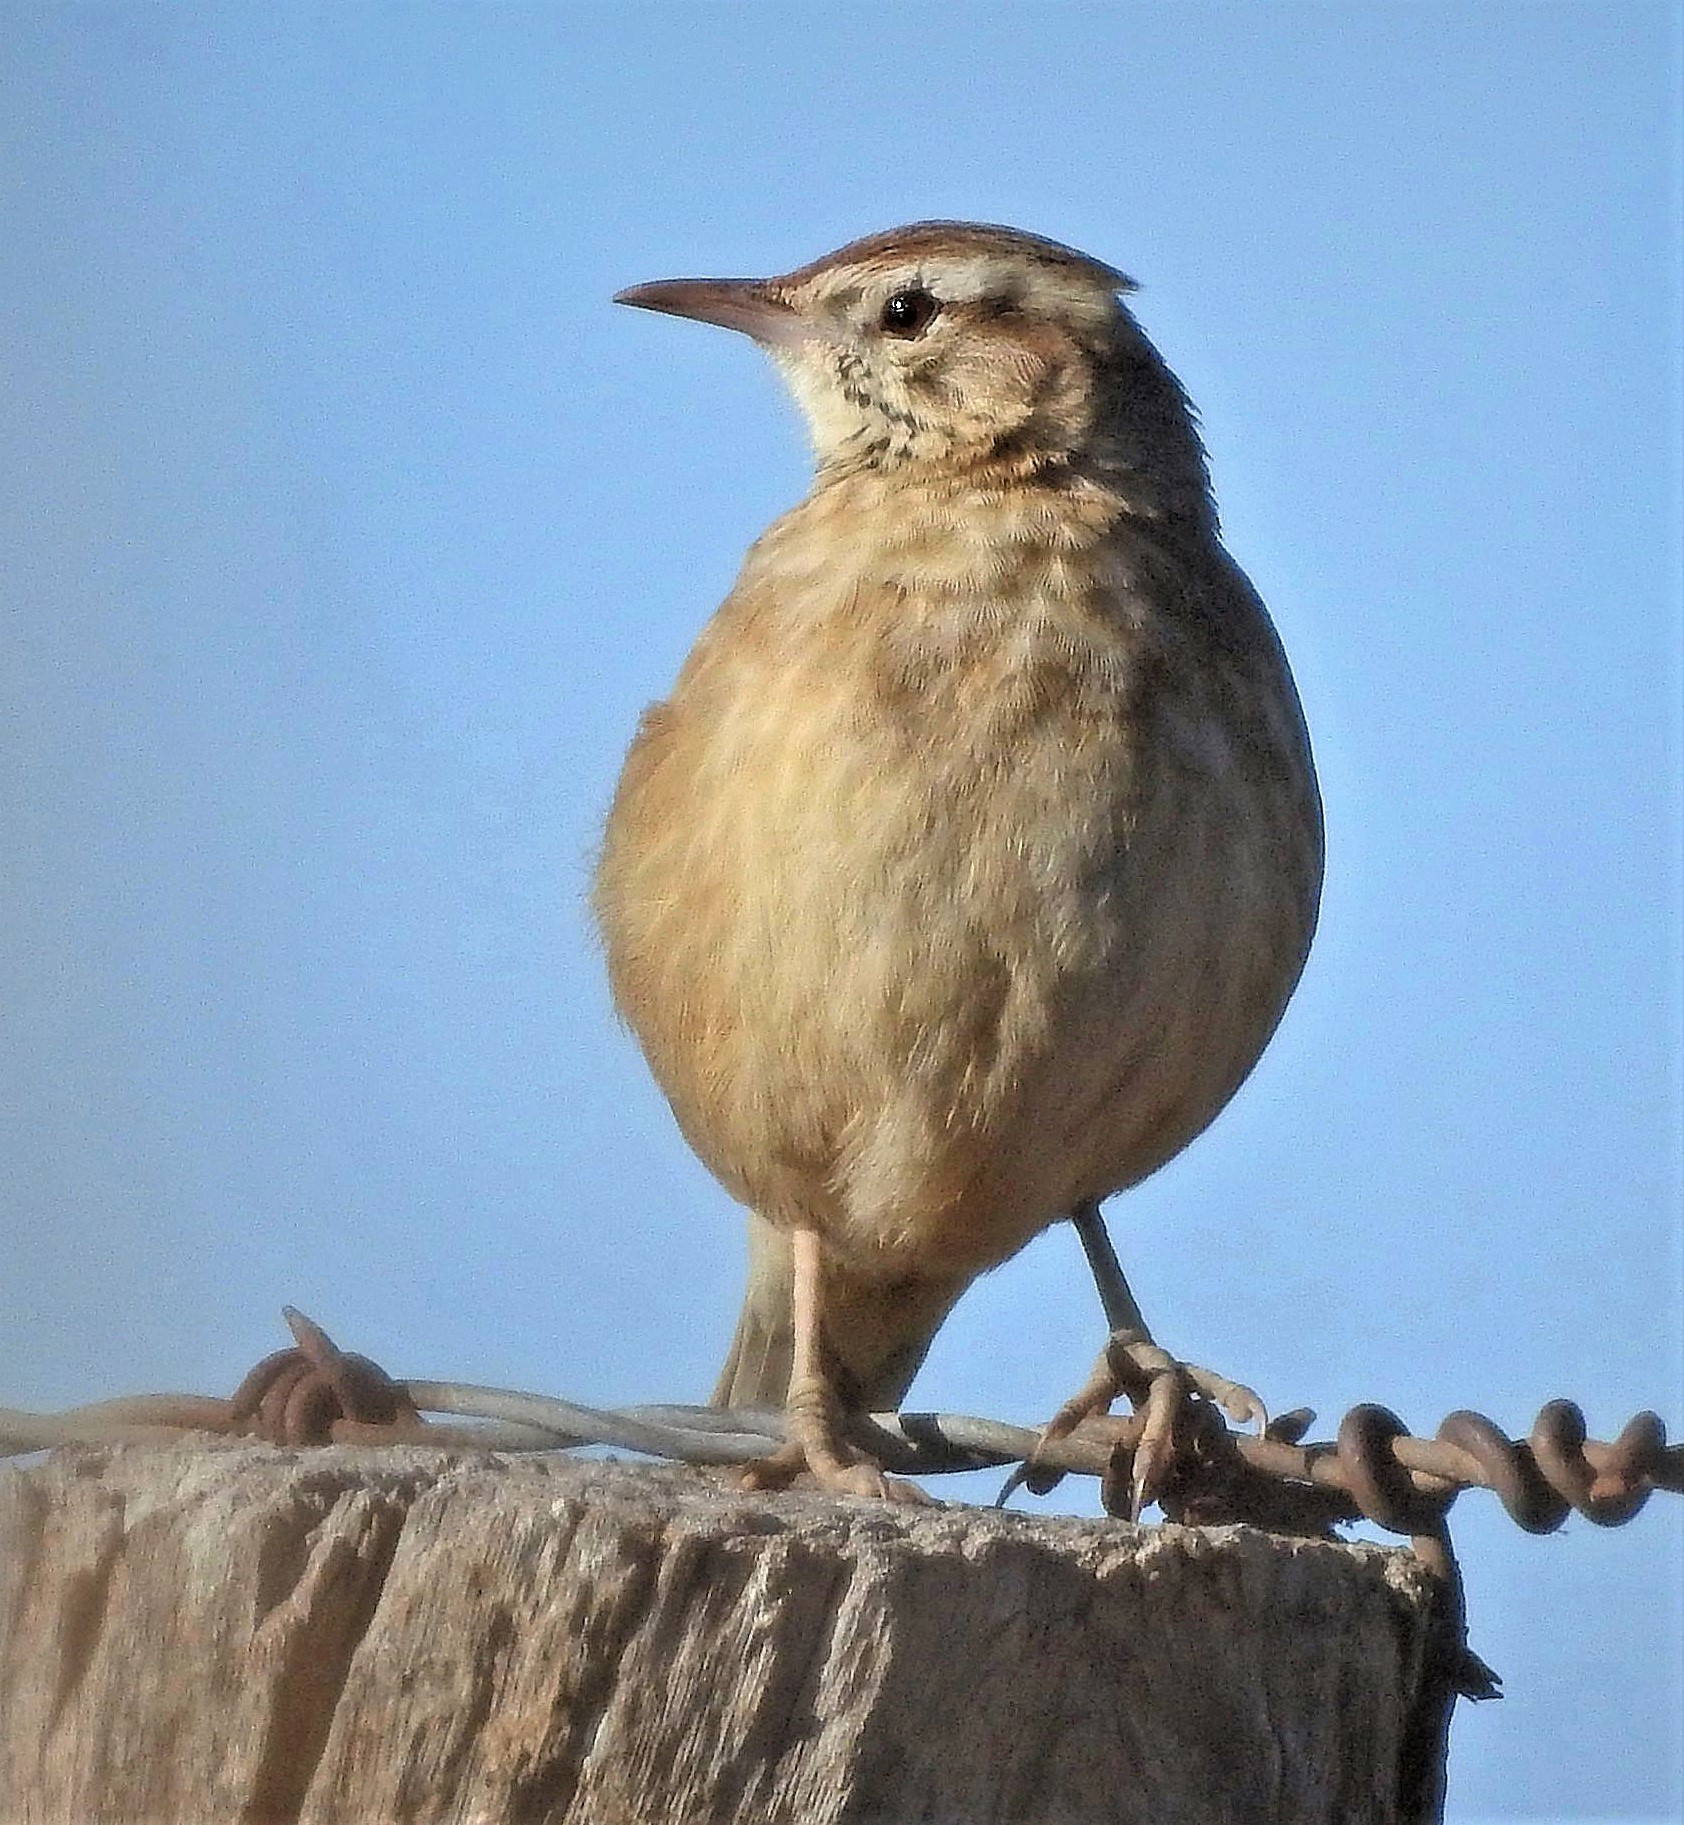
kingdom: Animalia
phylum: Chordata
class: Aves
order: Passeriformes
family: Furnariidae
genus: Anumbius
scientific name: Anumbius annumbi
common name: Firewood-gatherer
